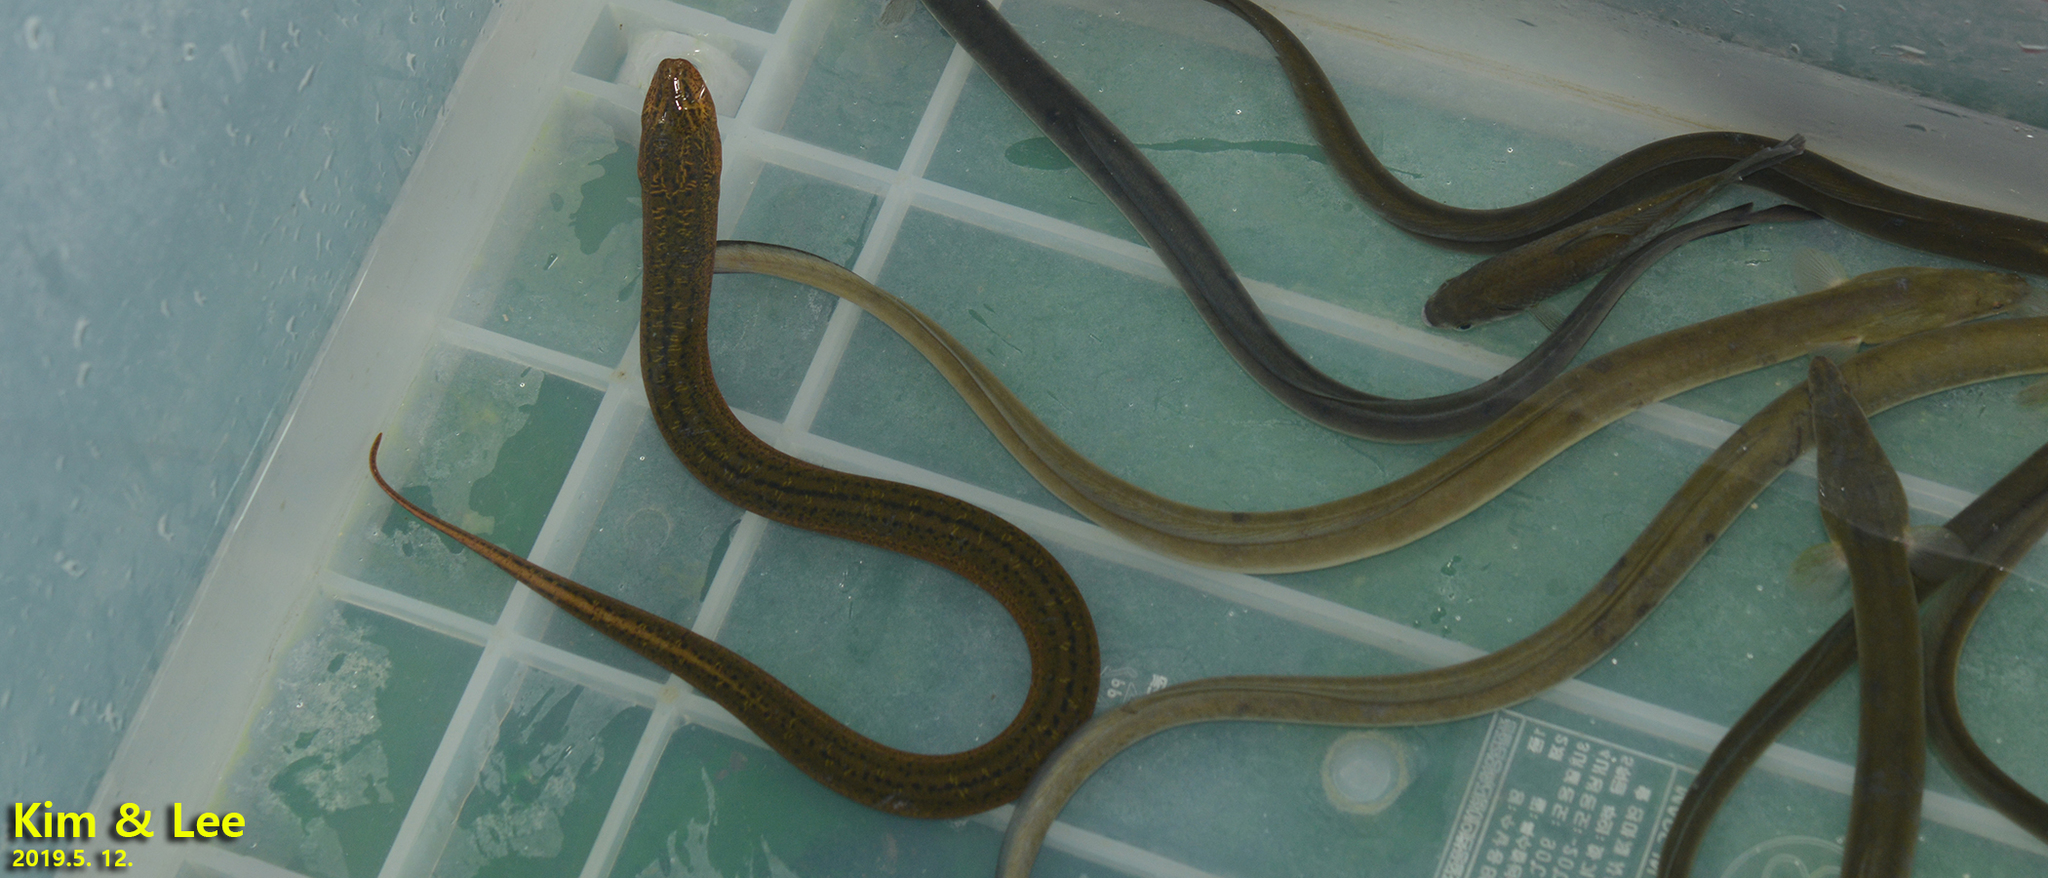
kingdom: Animalia
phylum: Chordata
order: Synbranchiformes
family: Synbranchidae
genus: Monopterus
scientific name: Monopterus albus
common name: Asian swamp eel
